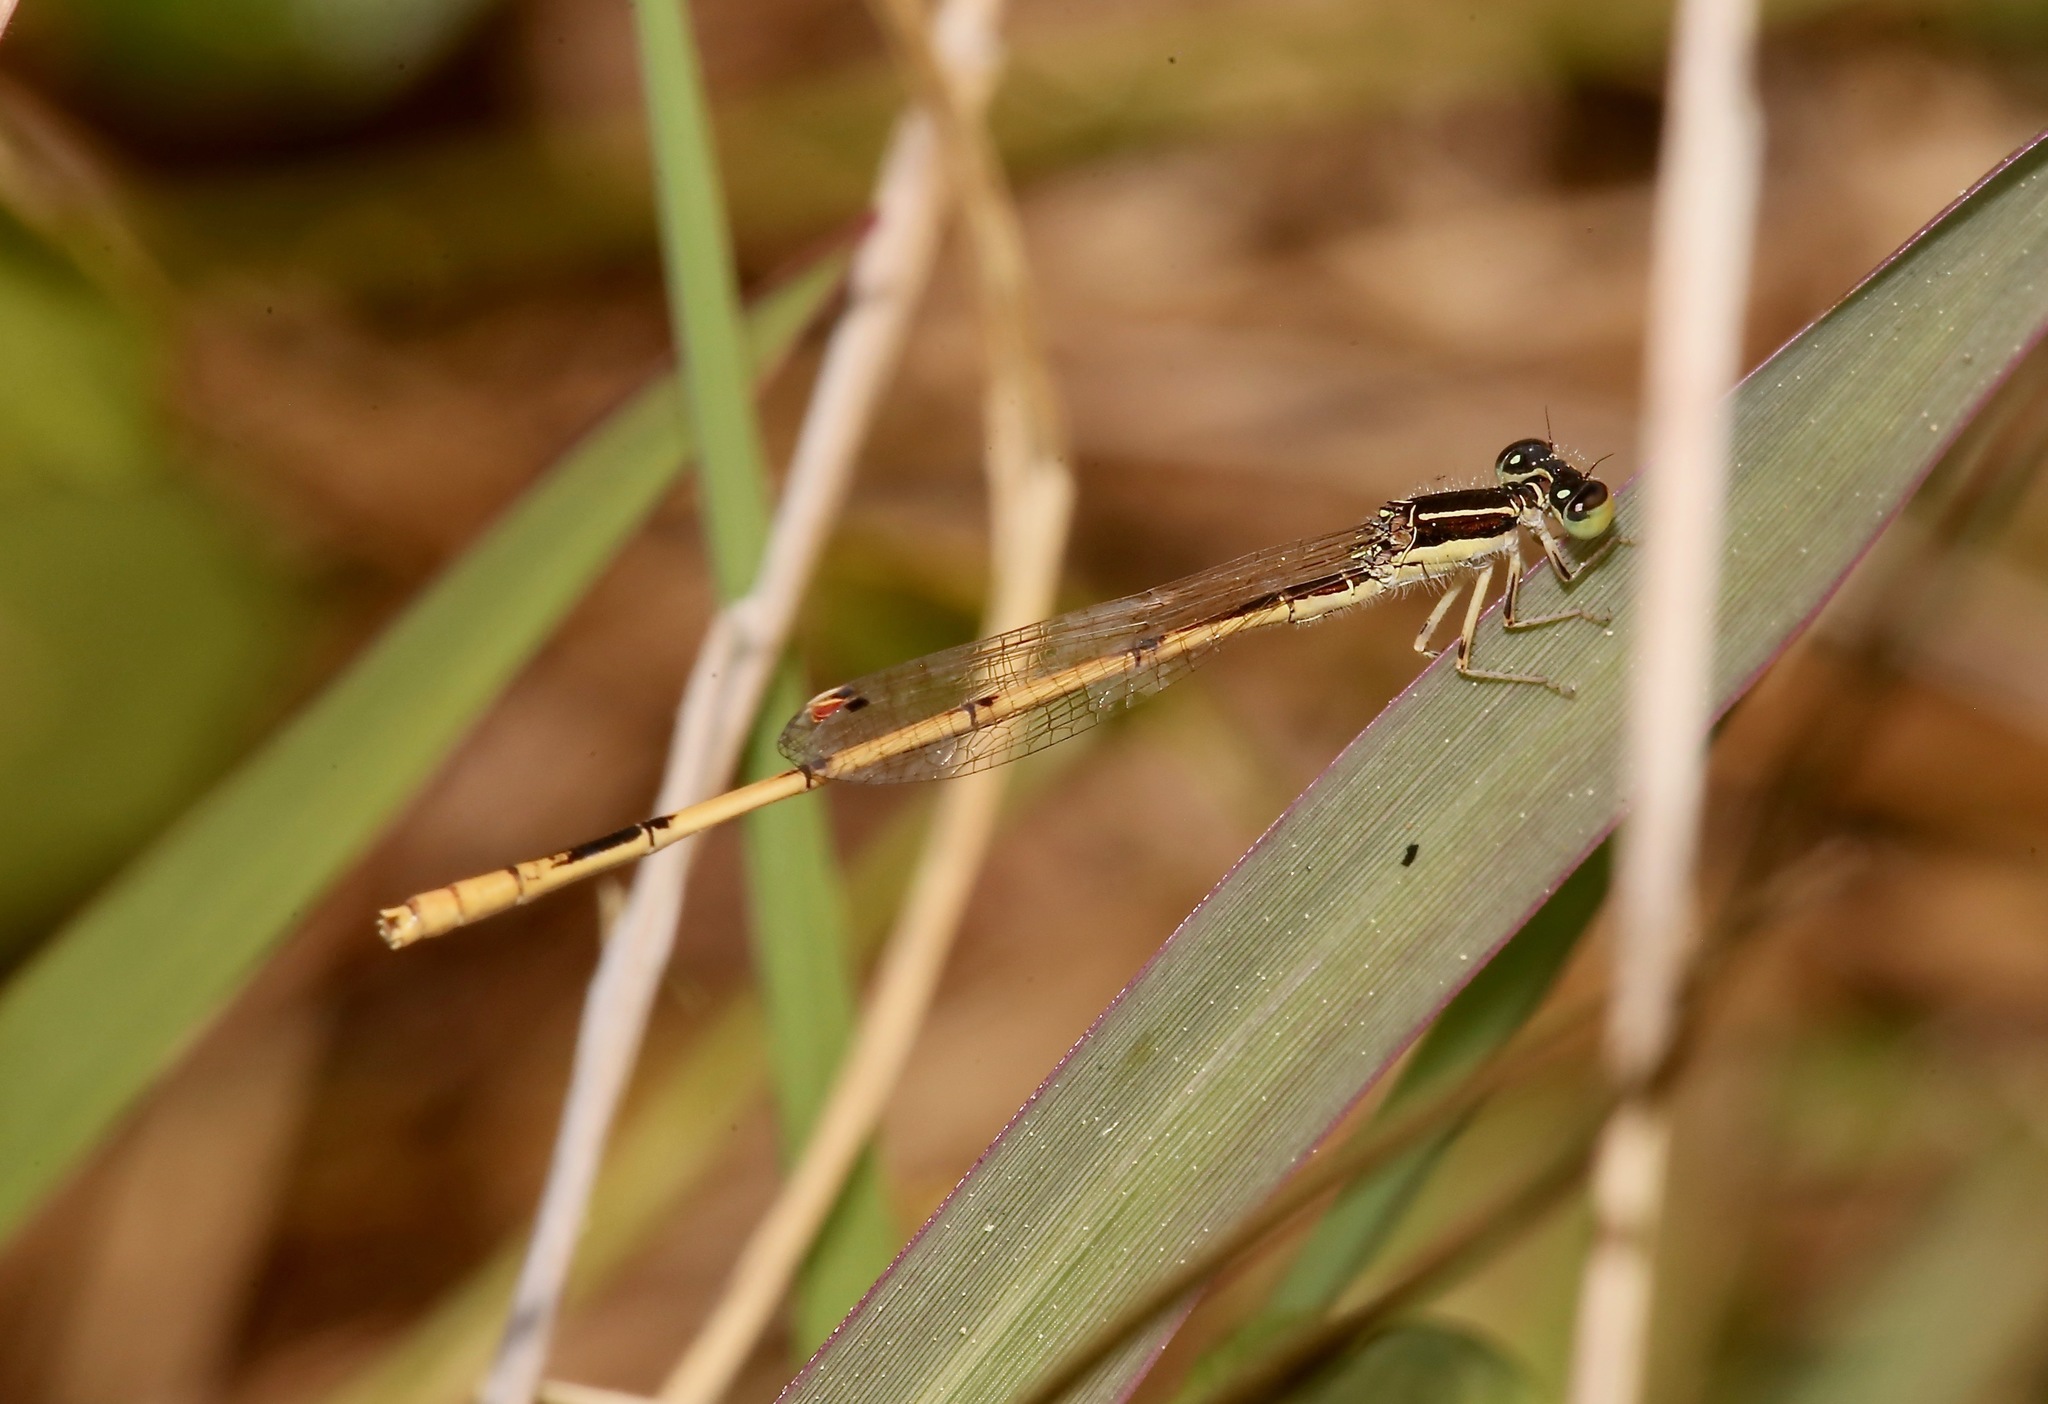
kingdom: Animalia
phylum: Arthropoda
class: Insecta
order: Odonata
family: Coenagrionidae
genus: Ischnura
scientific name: Ischnura hastata
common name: Citrine forktail
